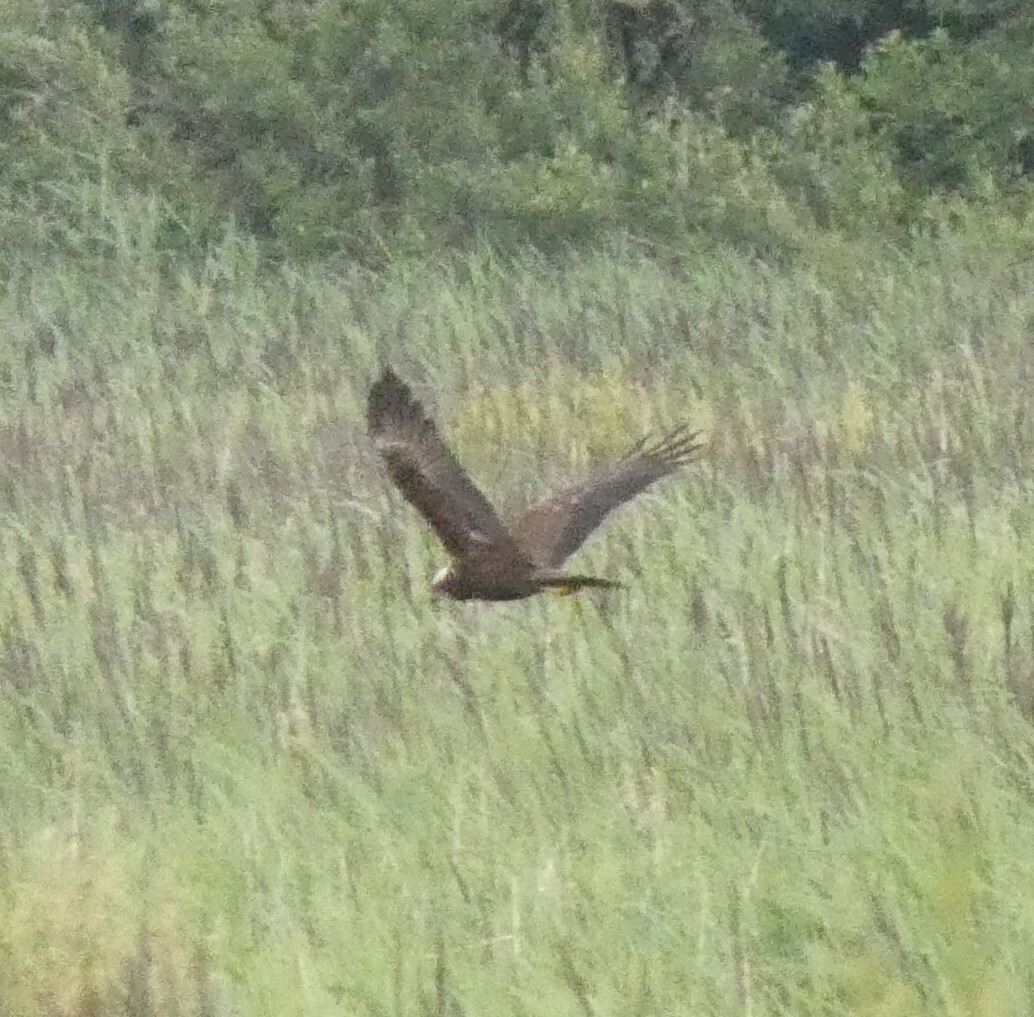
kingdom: Animalia
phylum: Chordata
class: Aves
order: Accipitriformes
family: Accipitridae
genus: Circus
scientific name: Circus aeruginosus
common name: Western marsh harrier
